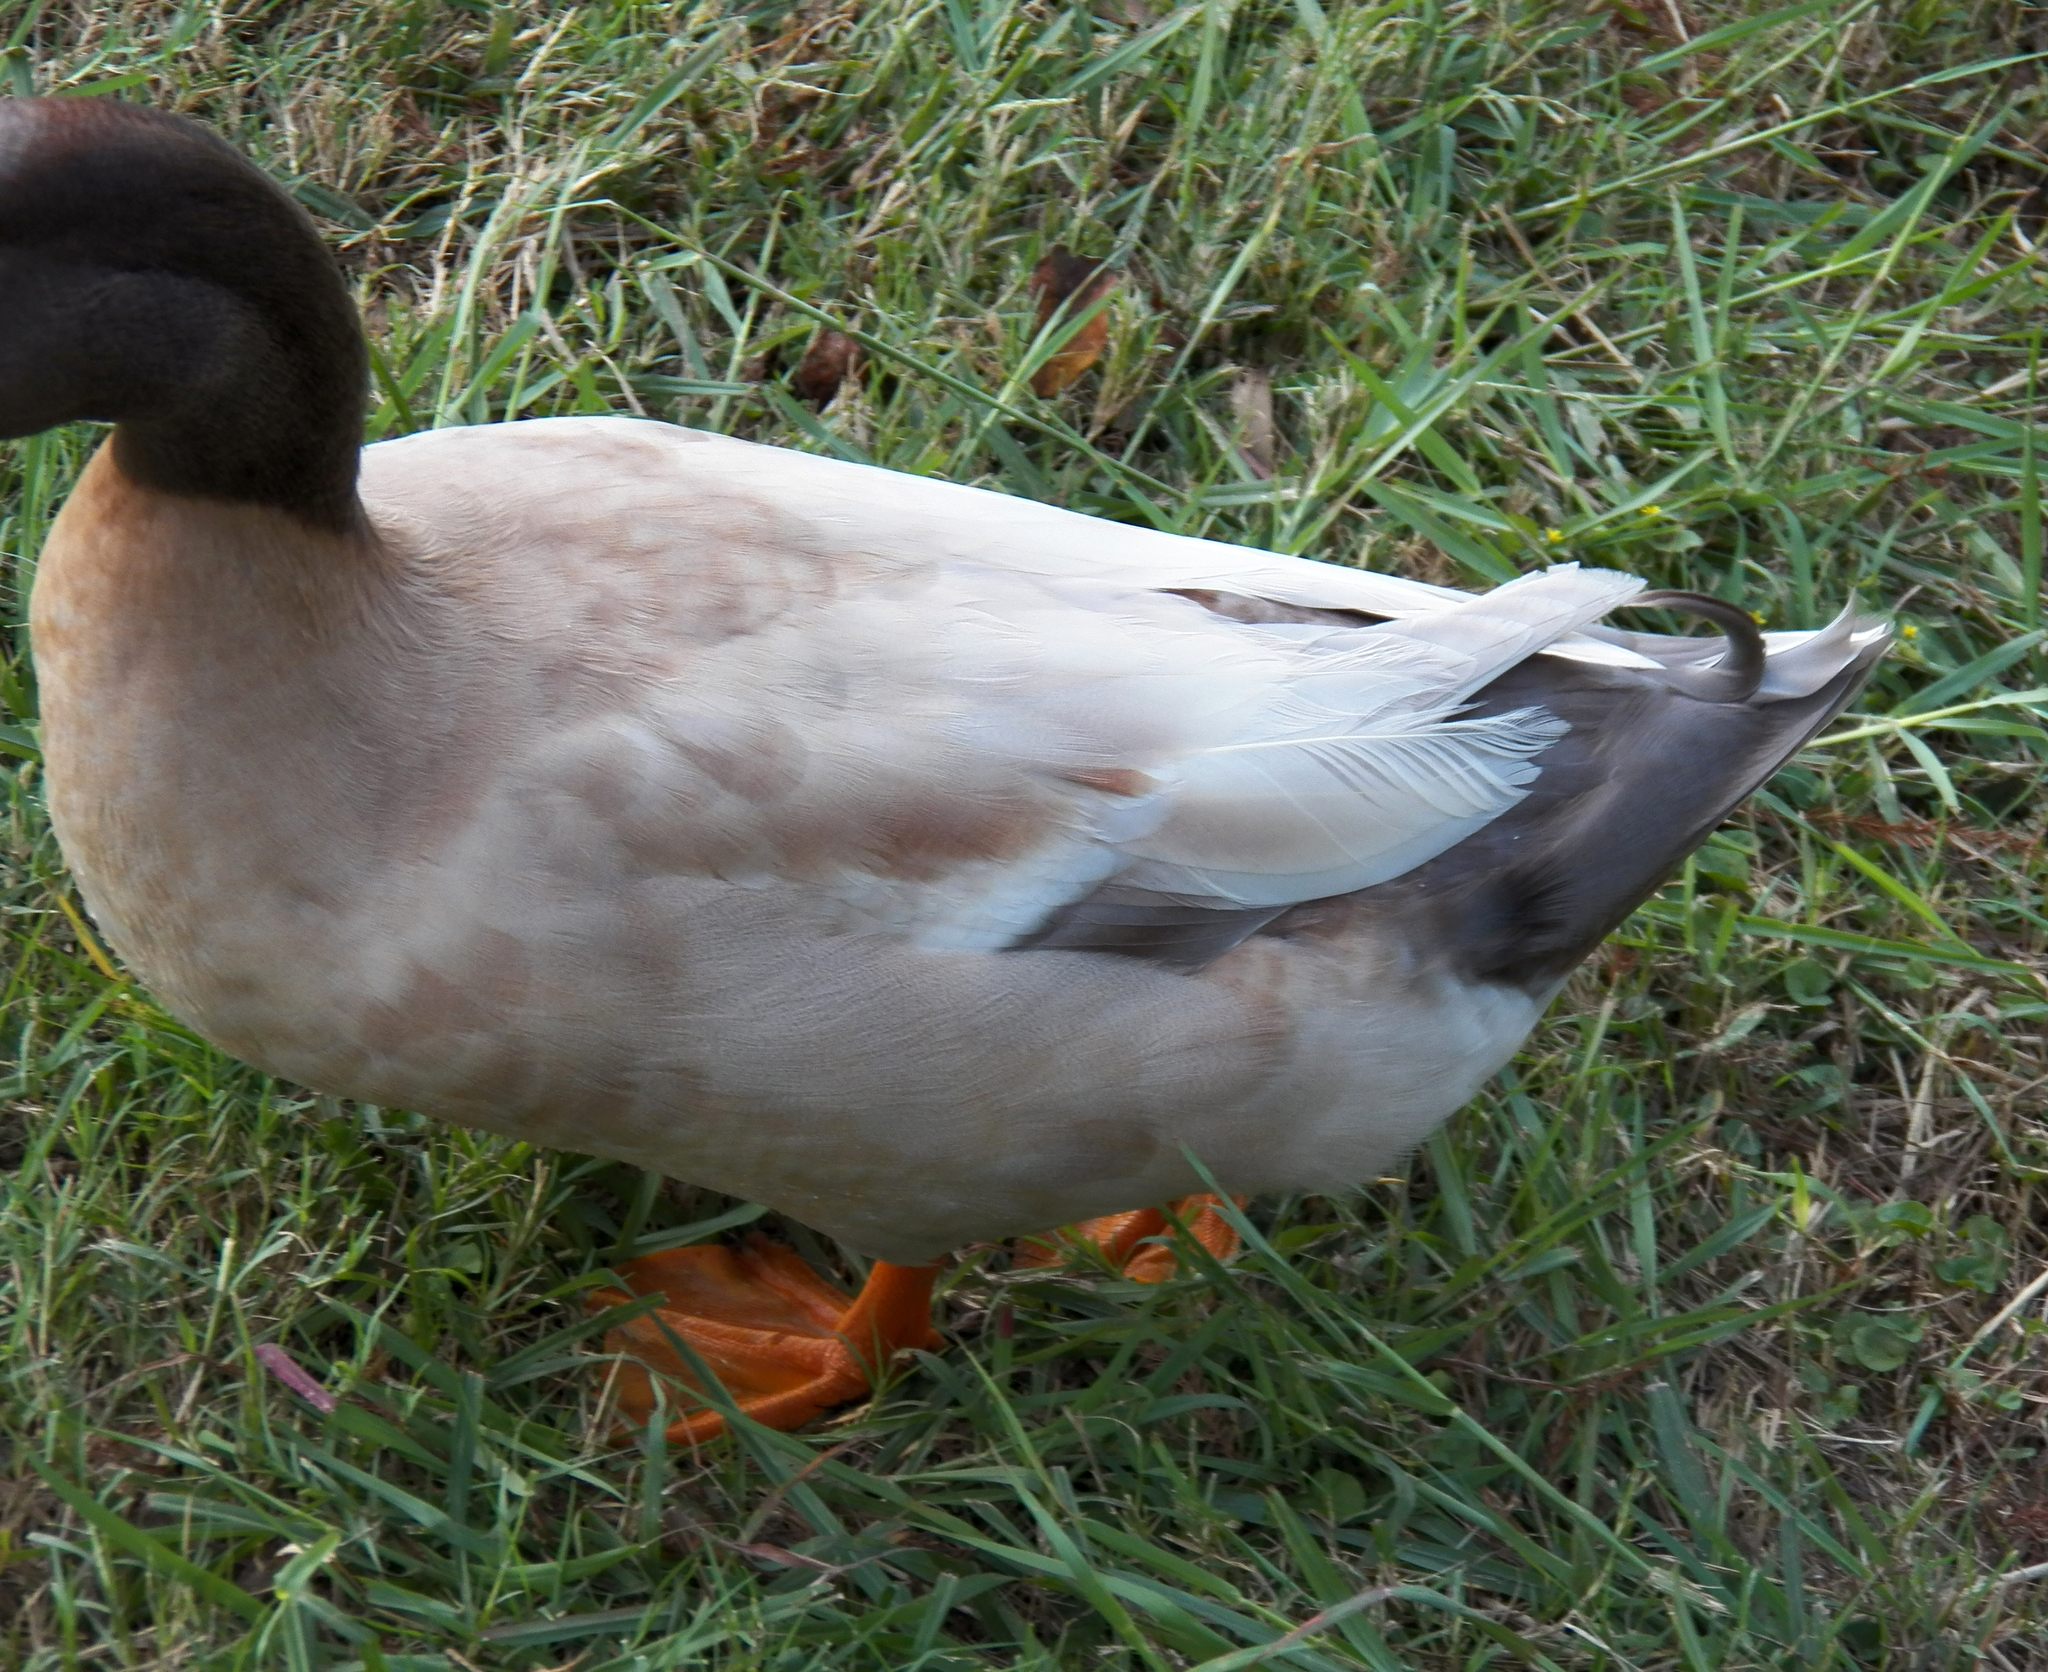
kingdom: Animalia
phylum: Chordata
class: Aves
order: Anseriformes
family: Anatidae
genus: Anas
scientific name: Anas platyrhynchos
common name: Mallard
